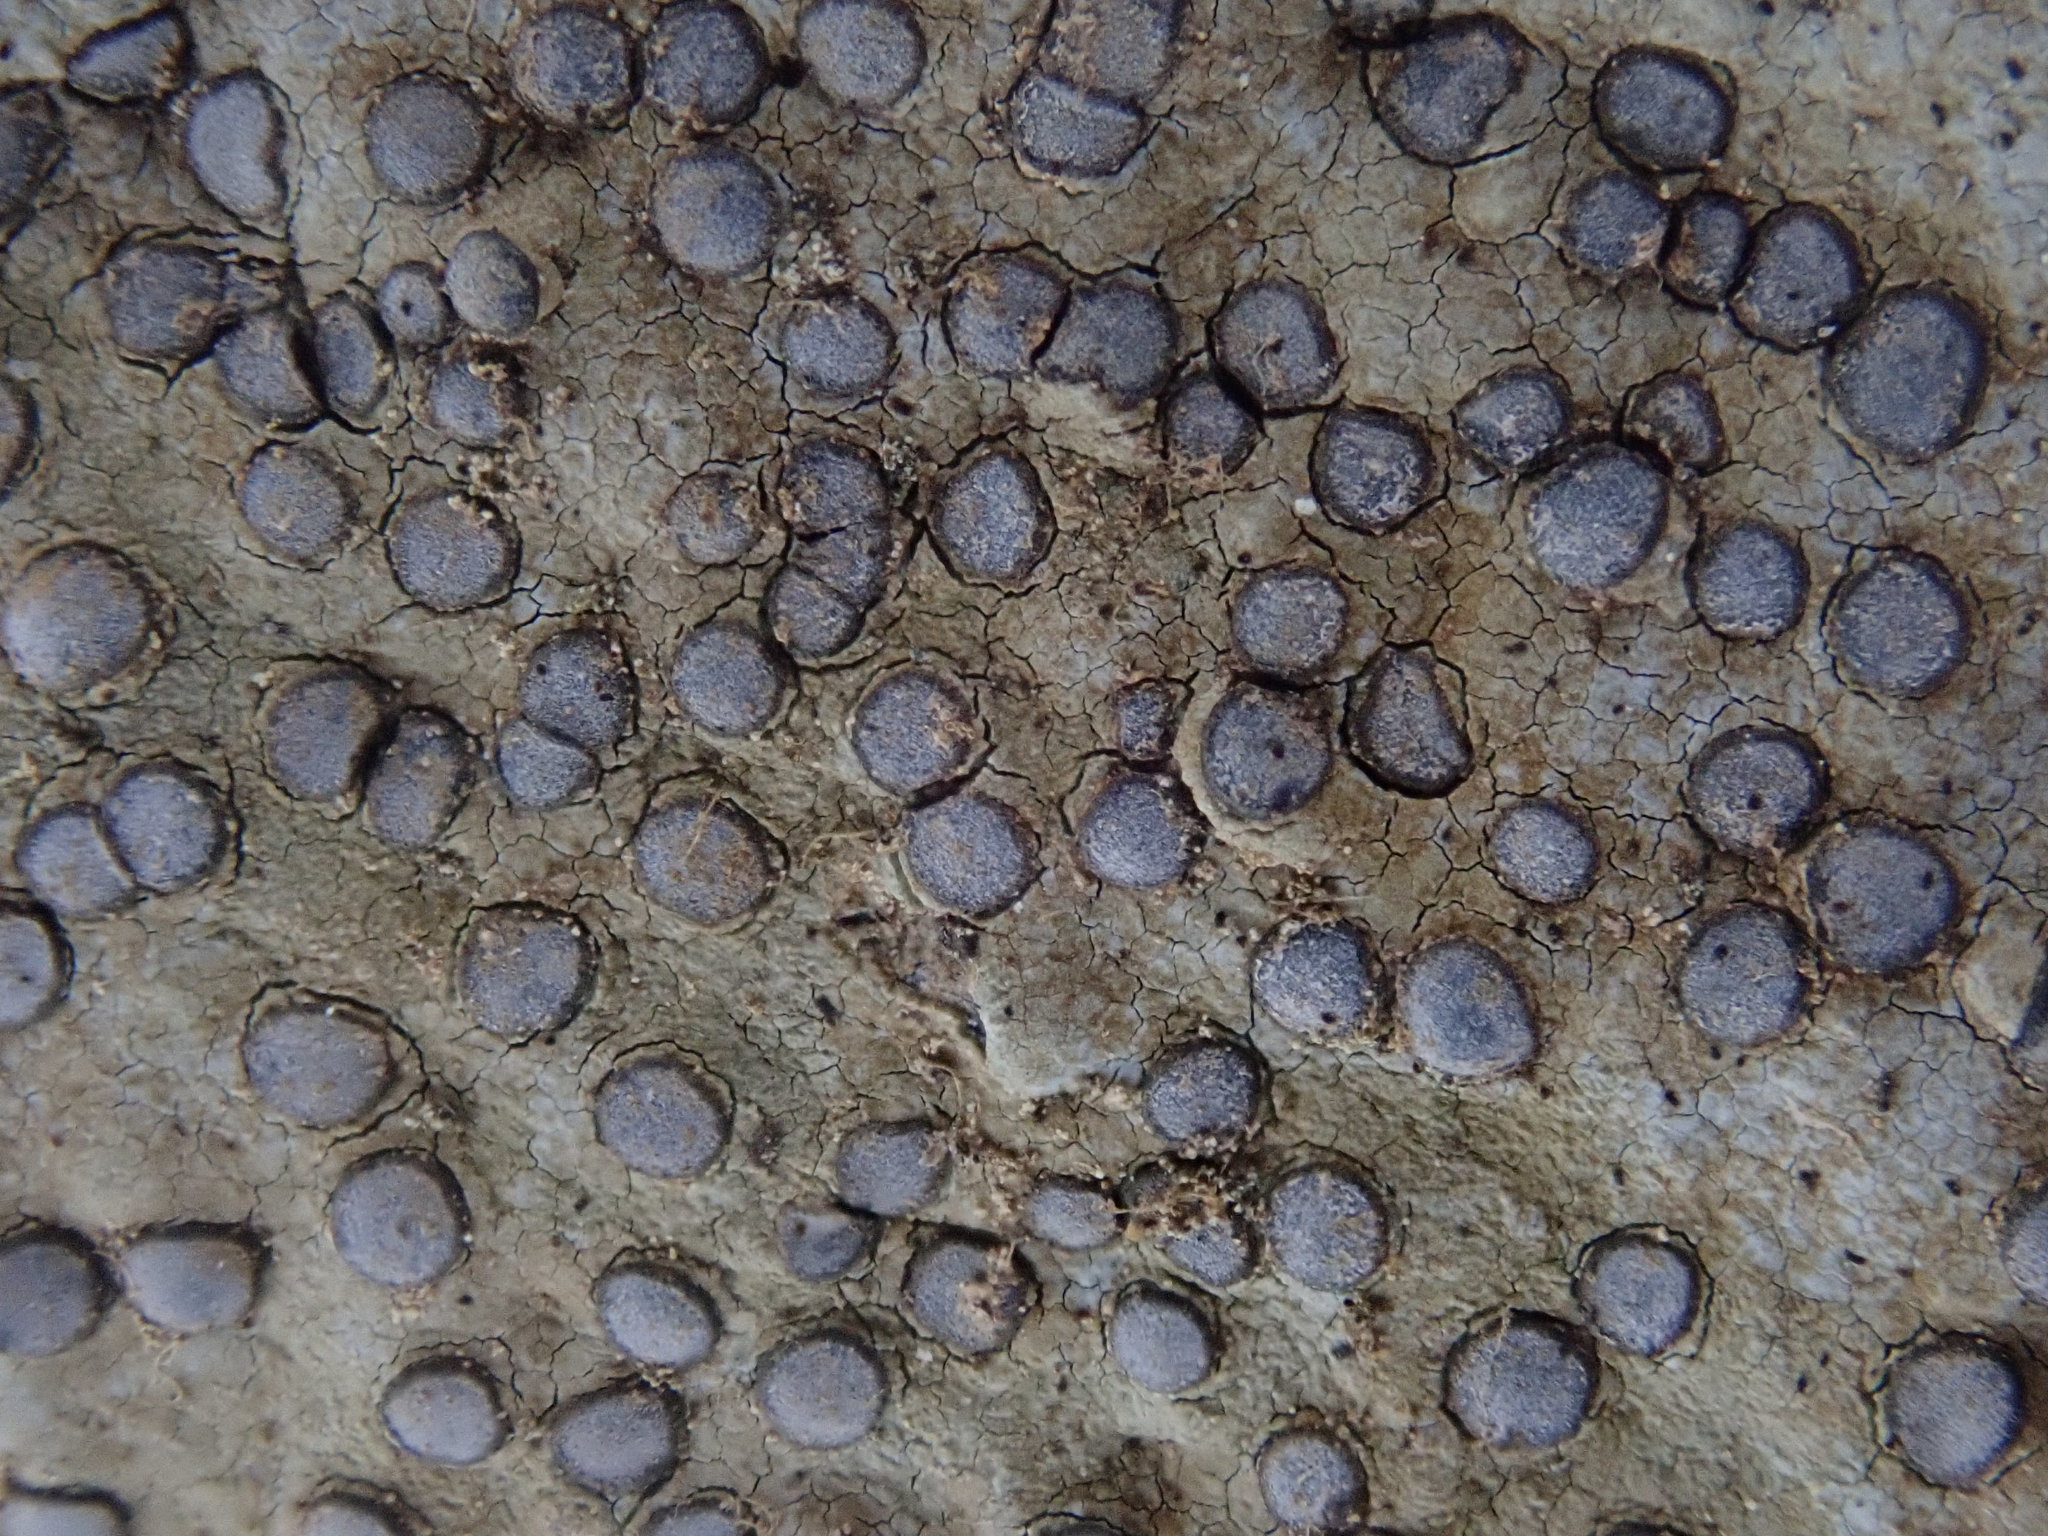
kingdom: Fungi
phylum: Ascomycota
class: Lecanoromycetes
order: Lecideales
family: Lecideaceae
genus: Porpidia
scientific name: Porpidia albocaerulescens
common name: Smokey-eyed boulder lichen
